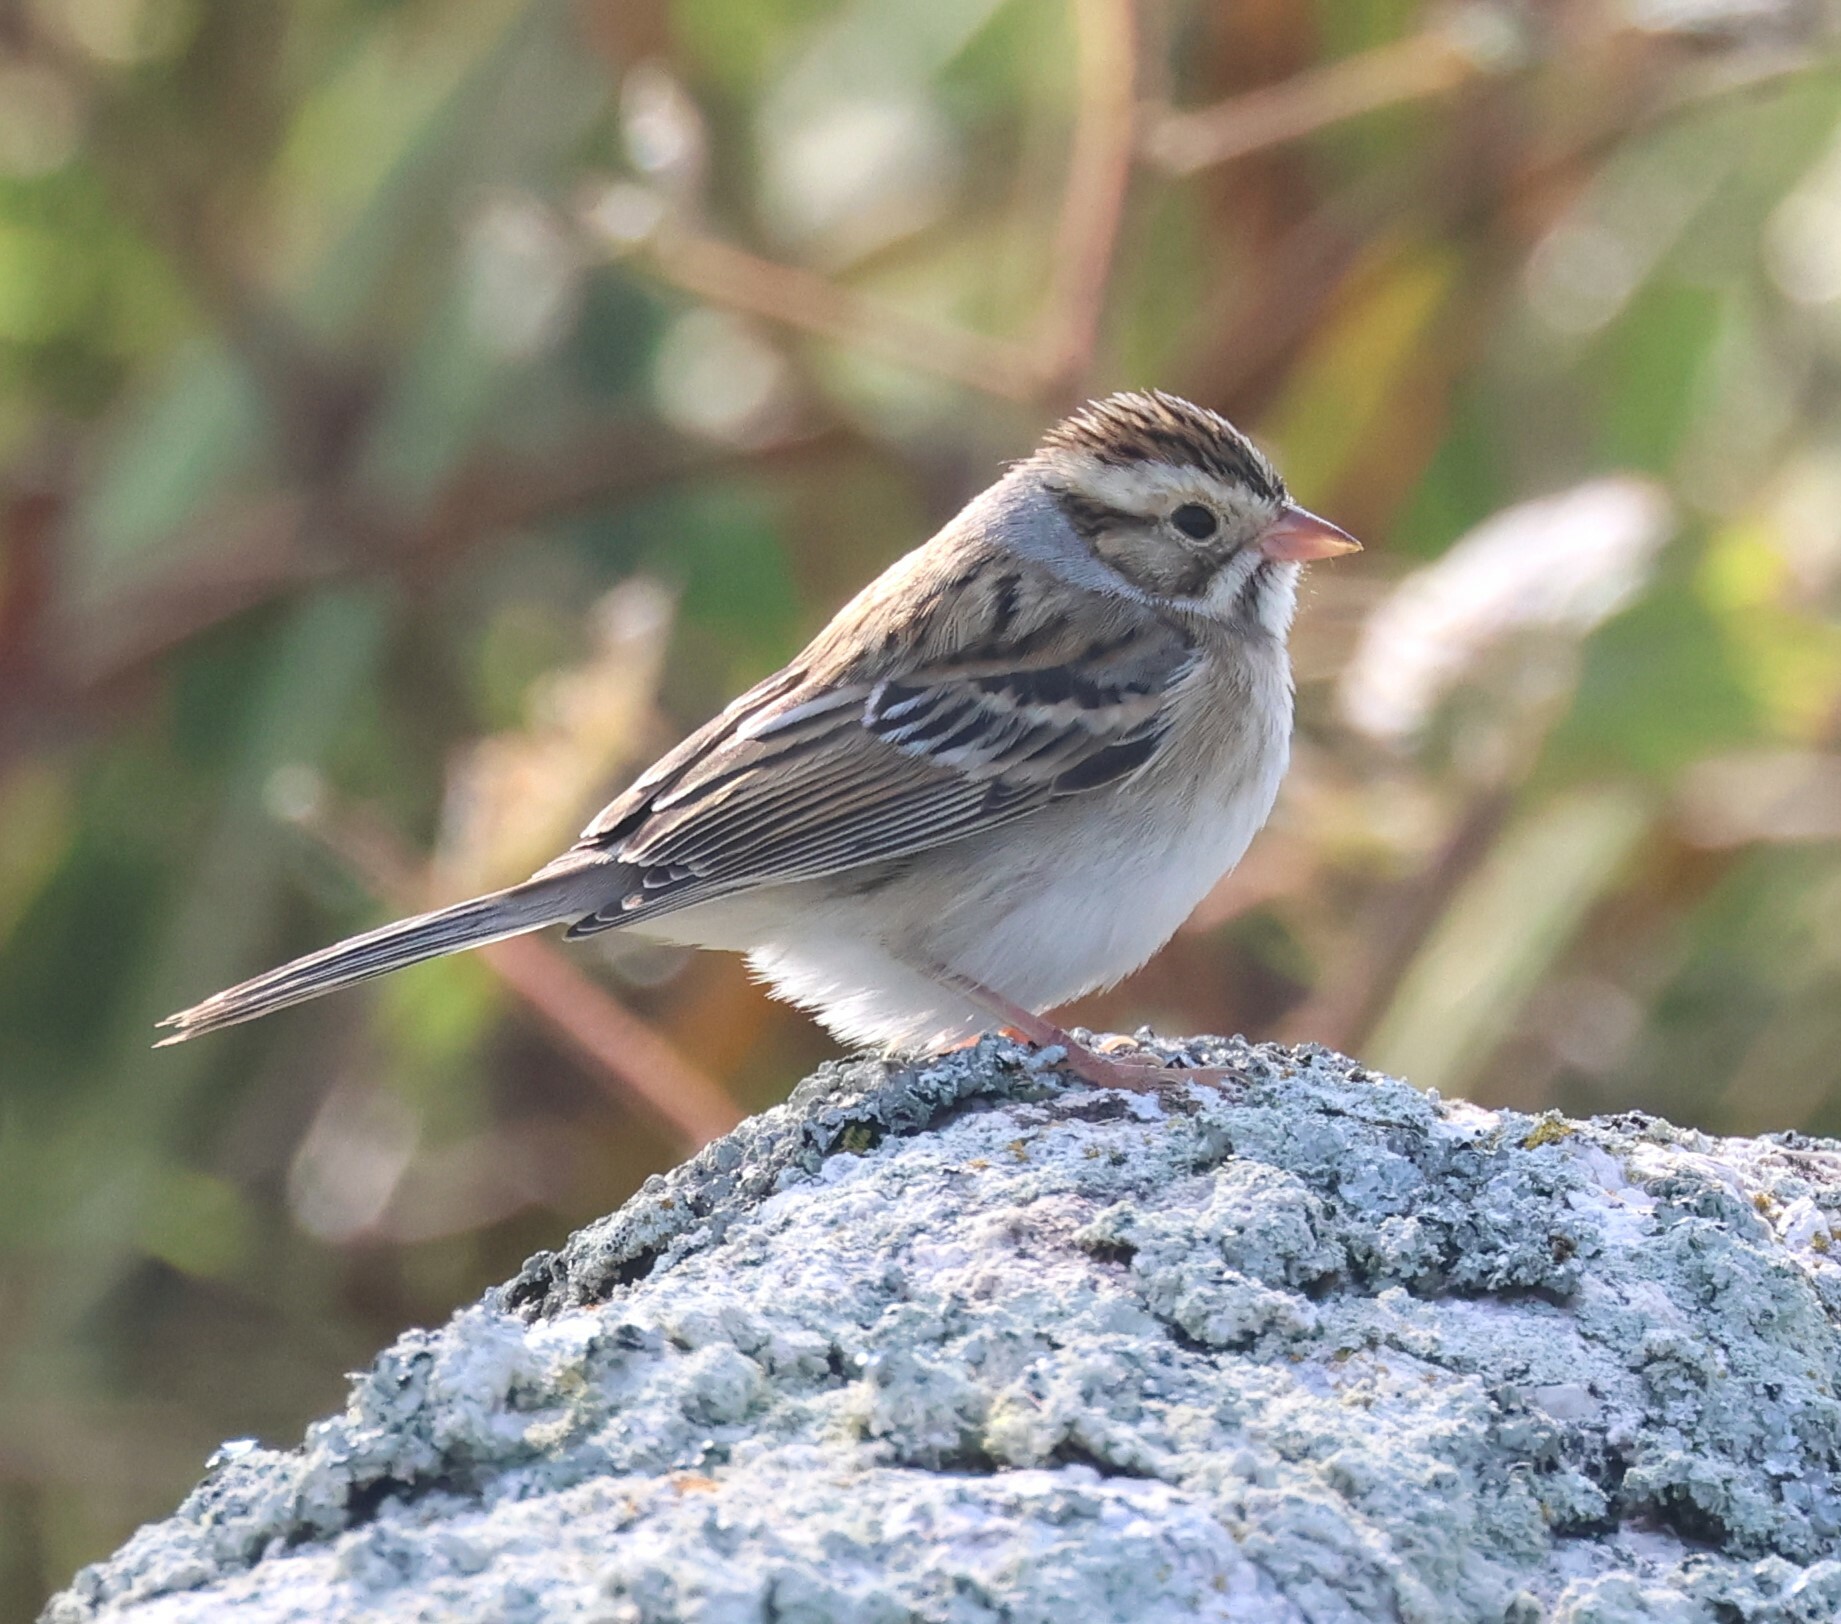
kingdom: Animalia
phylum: Chordata
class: Aves
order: Passeriformes
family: Passerellidae
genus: Spizella
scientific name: Spizella pallida
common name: Clay-colored sparrow
